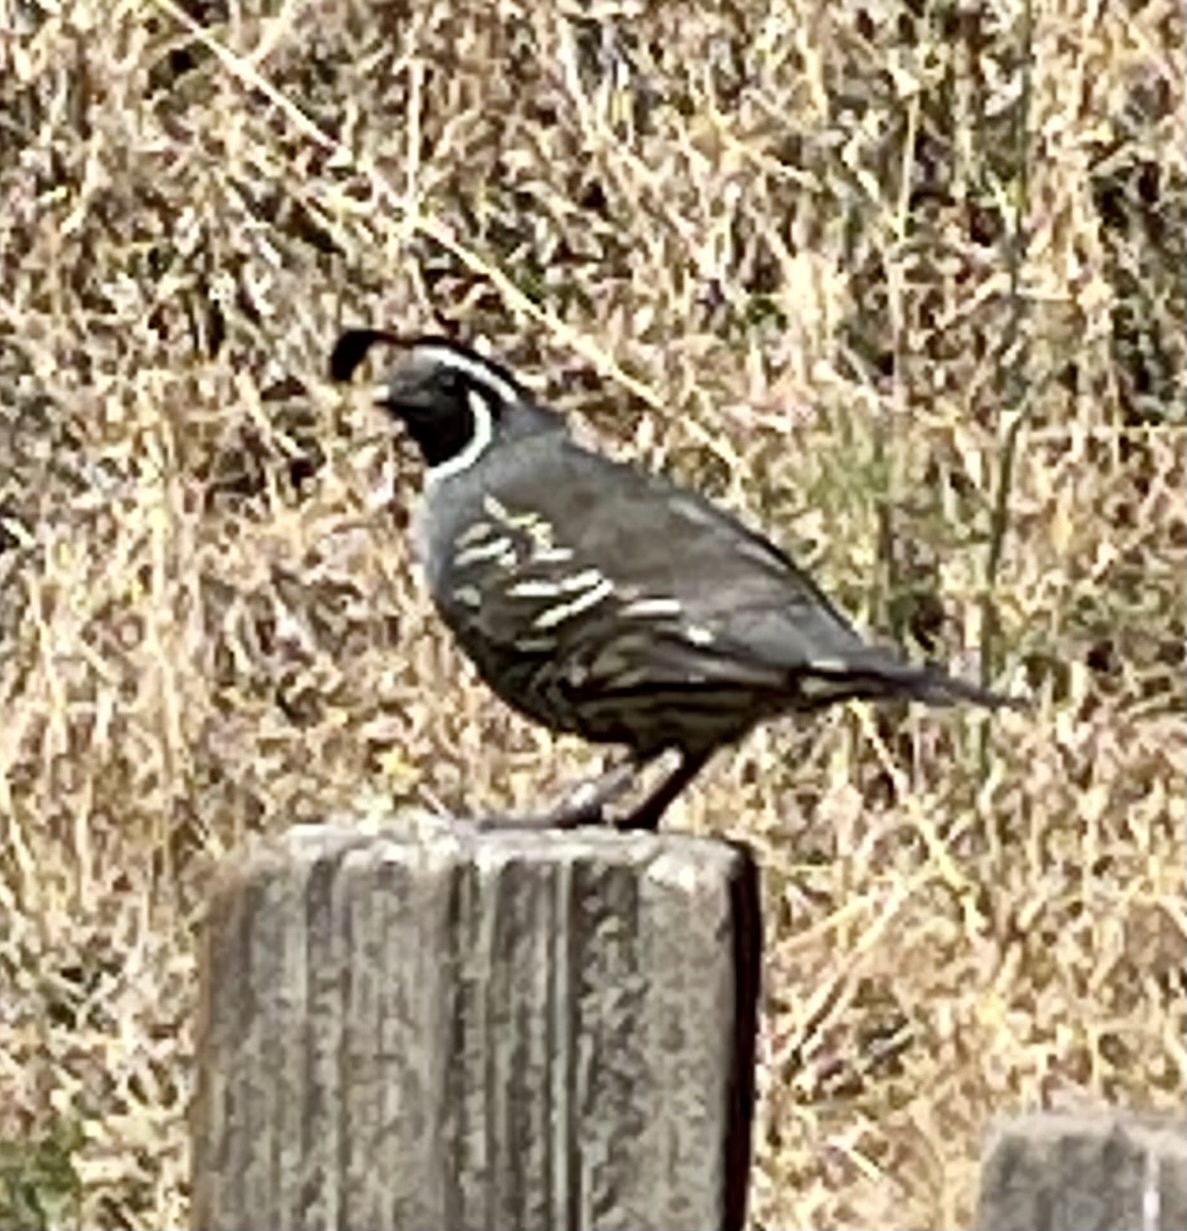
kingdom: Animalia
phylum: Chordata
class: Aves
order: Galliformes
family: Odontophoridae
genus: Callipepla
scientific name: Callipepla californica
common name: California quail
